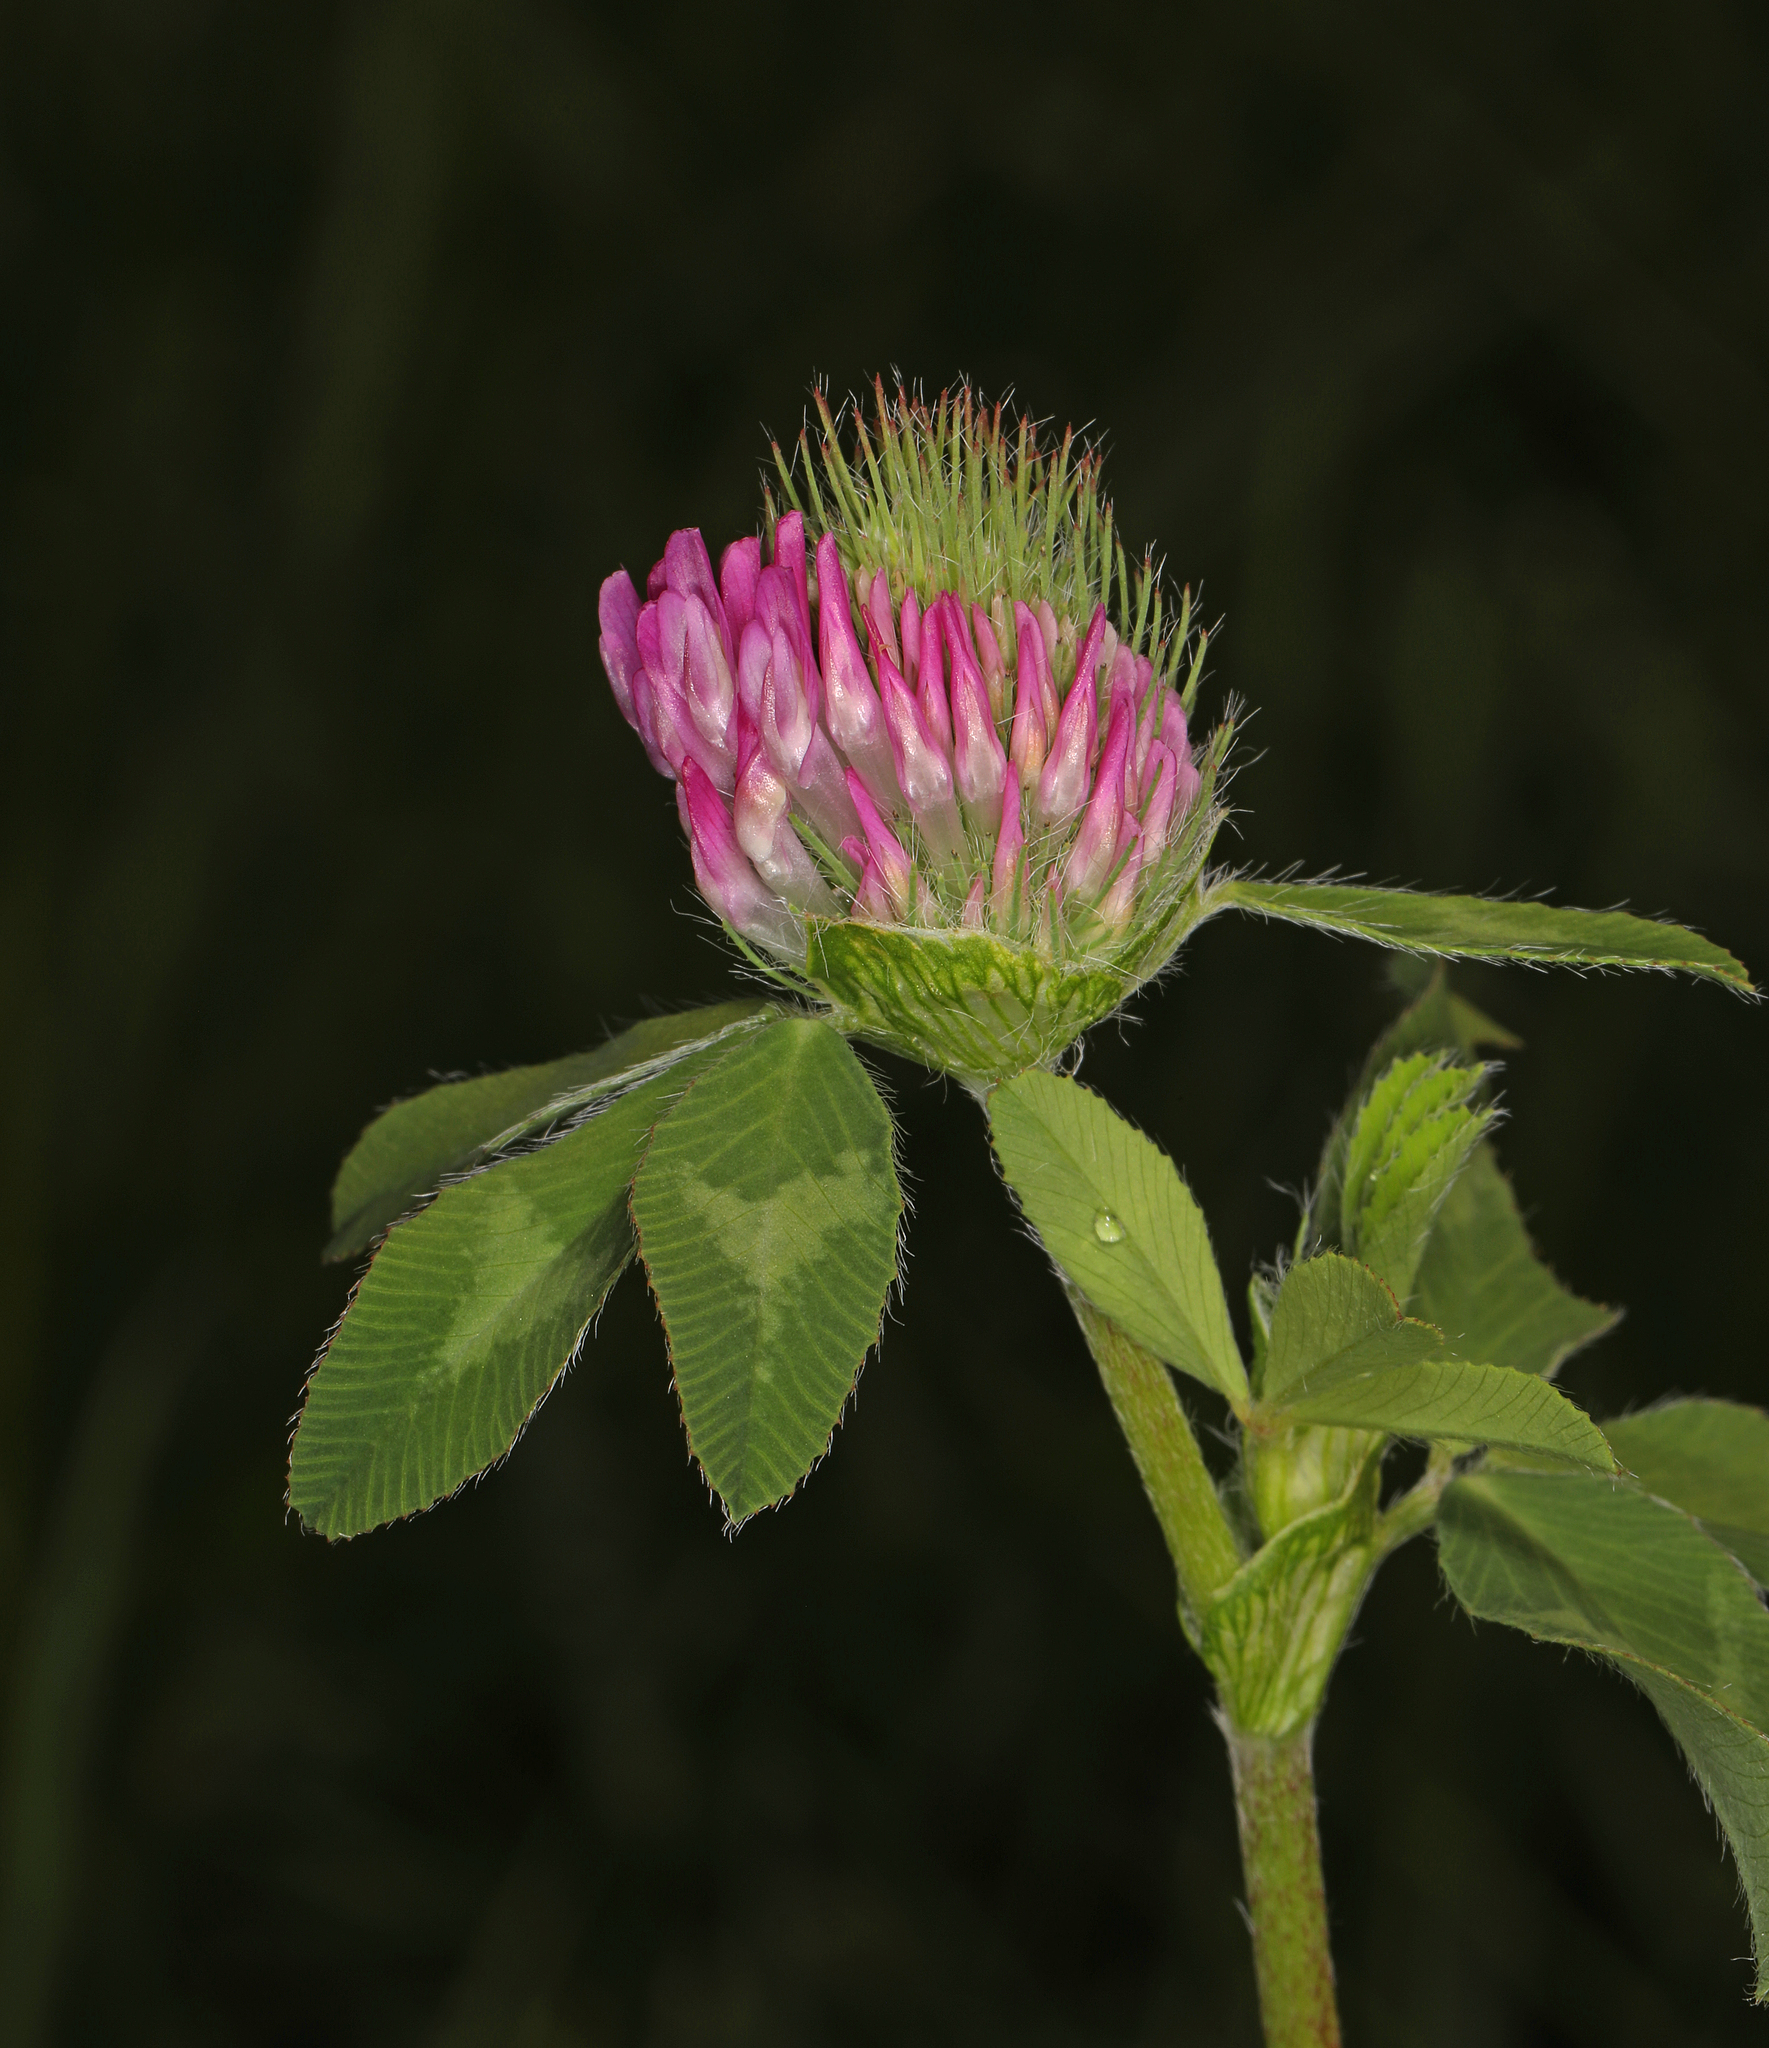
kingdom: Plantae
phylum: Tracheophyta
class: Magnoliopsida
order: Fabales
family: Fabaceae
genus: Trifolium
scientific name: Trifolium pratense
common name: Red clover
